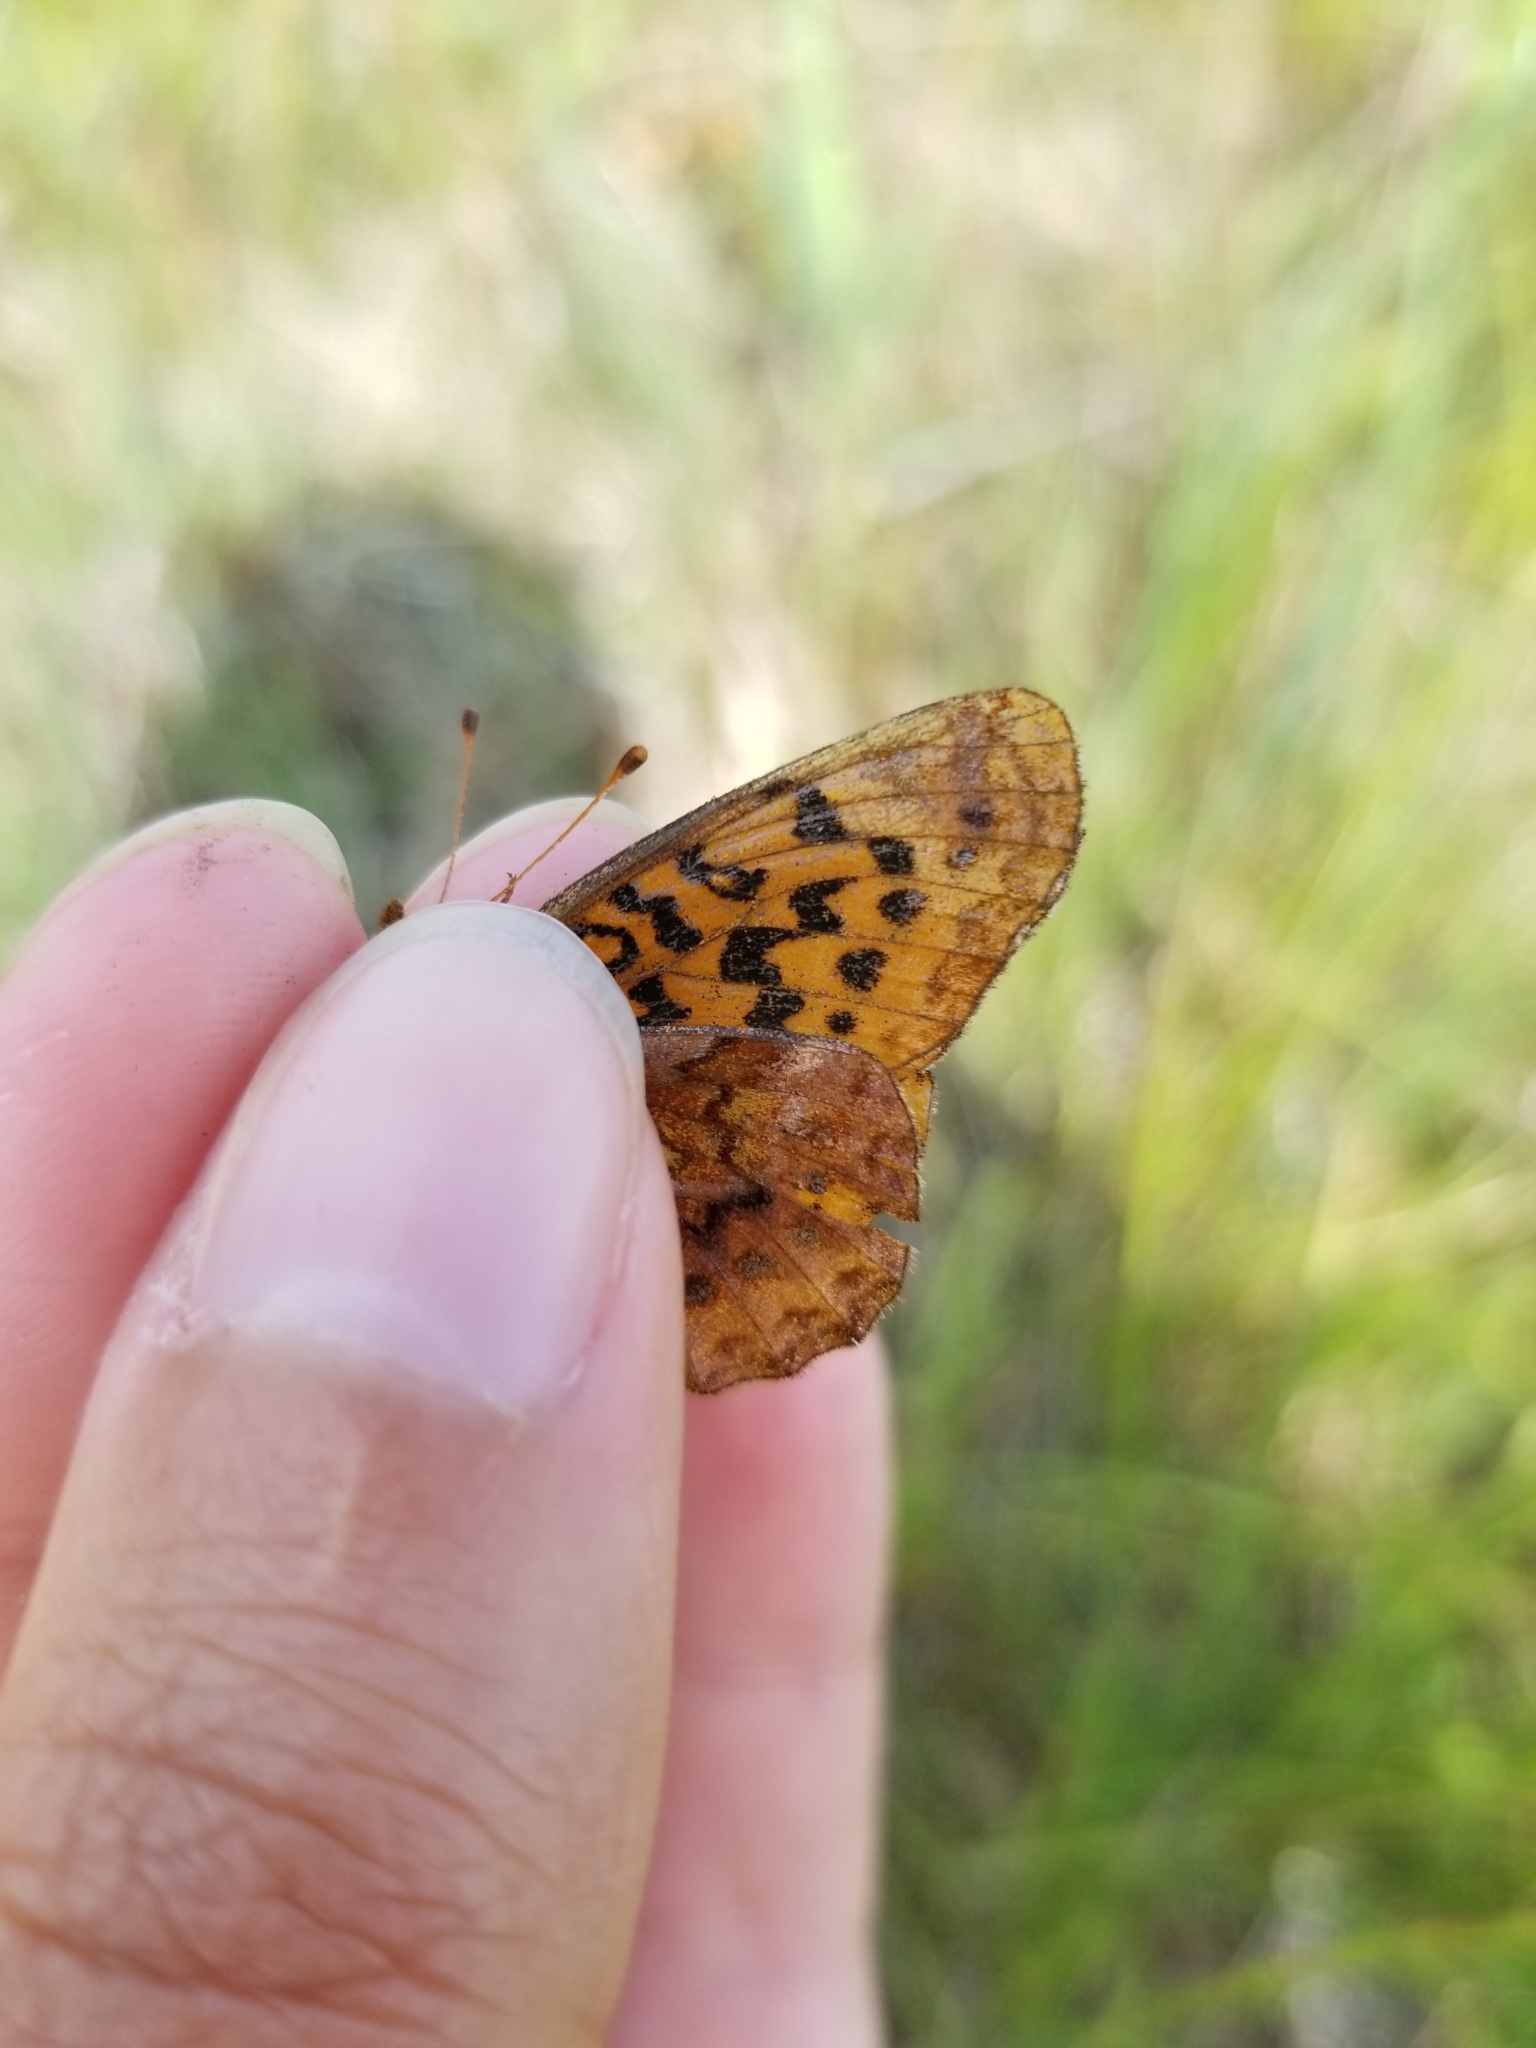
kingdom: Animalia
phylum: Arthropoda
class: Insecta
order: Lepidoptera
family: Nymphalidae
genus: Clossiana
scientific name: Clossiana toddi
